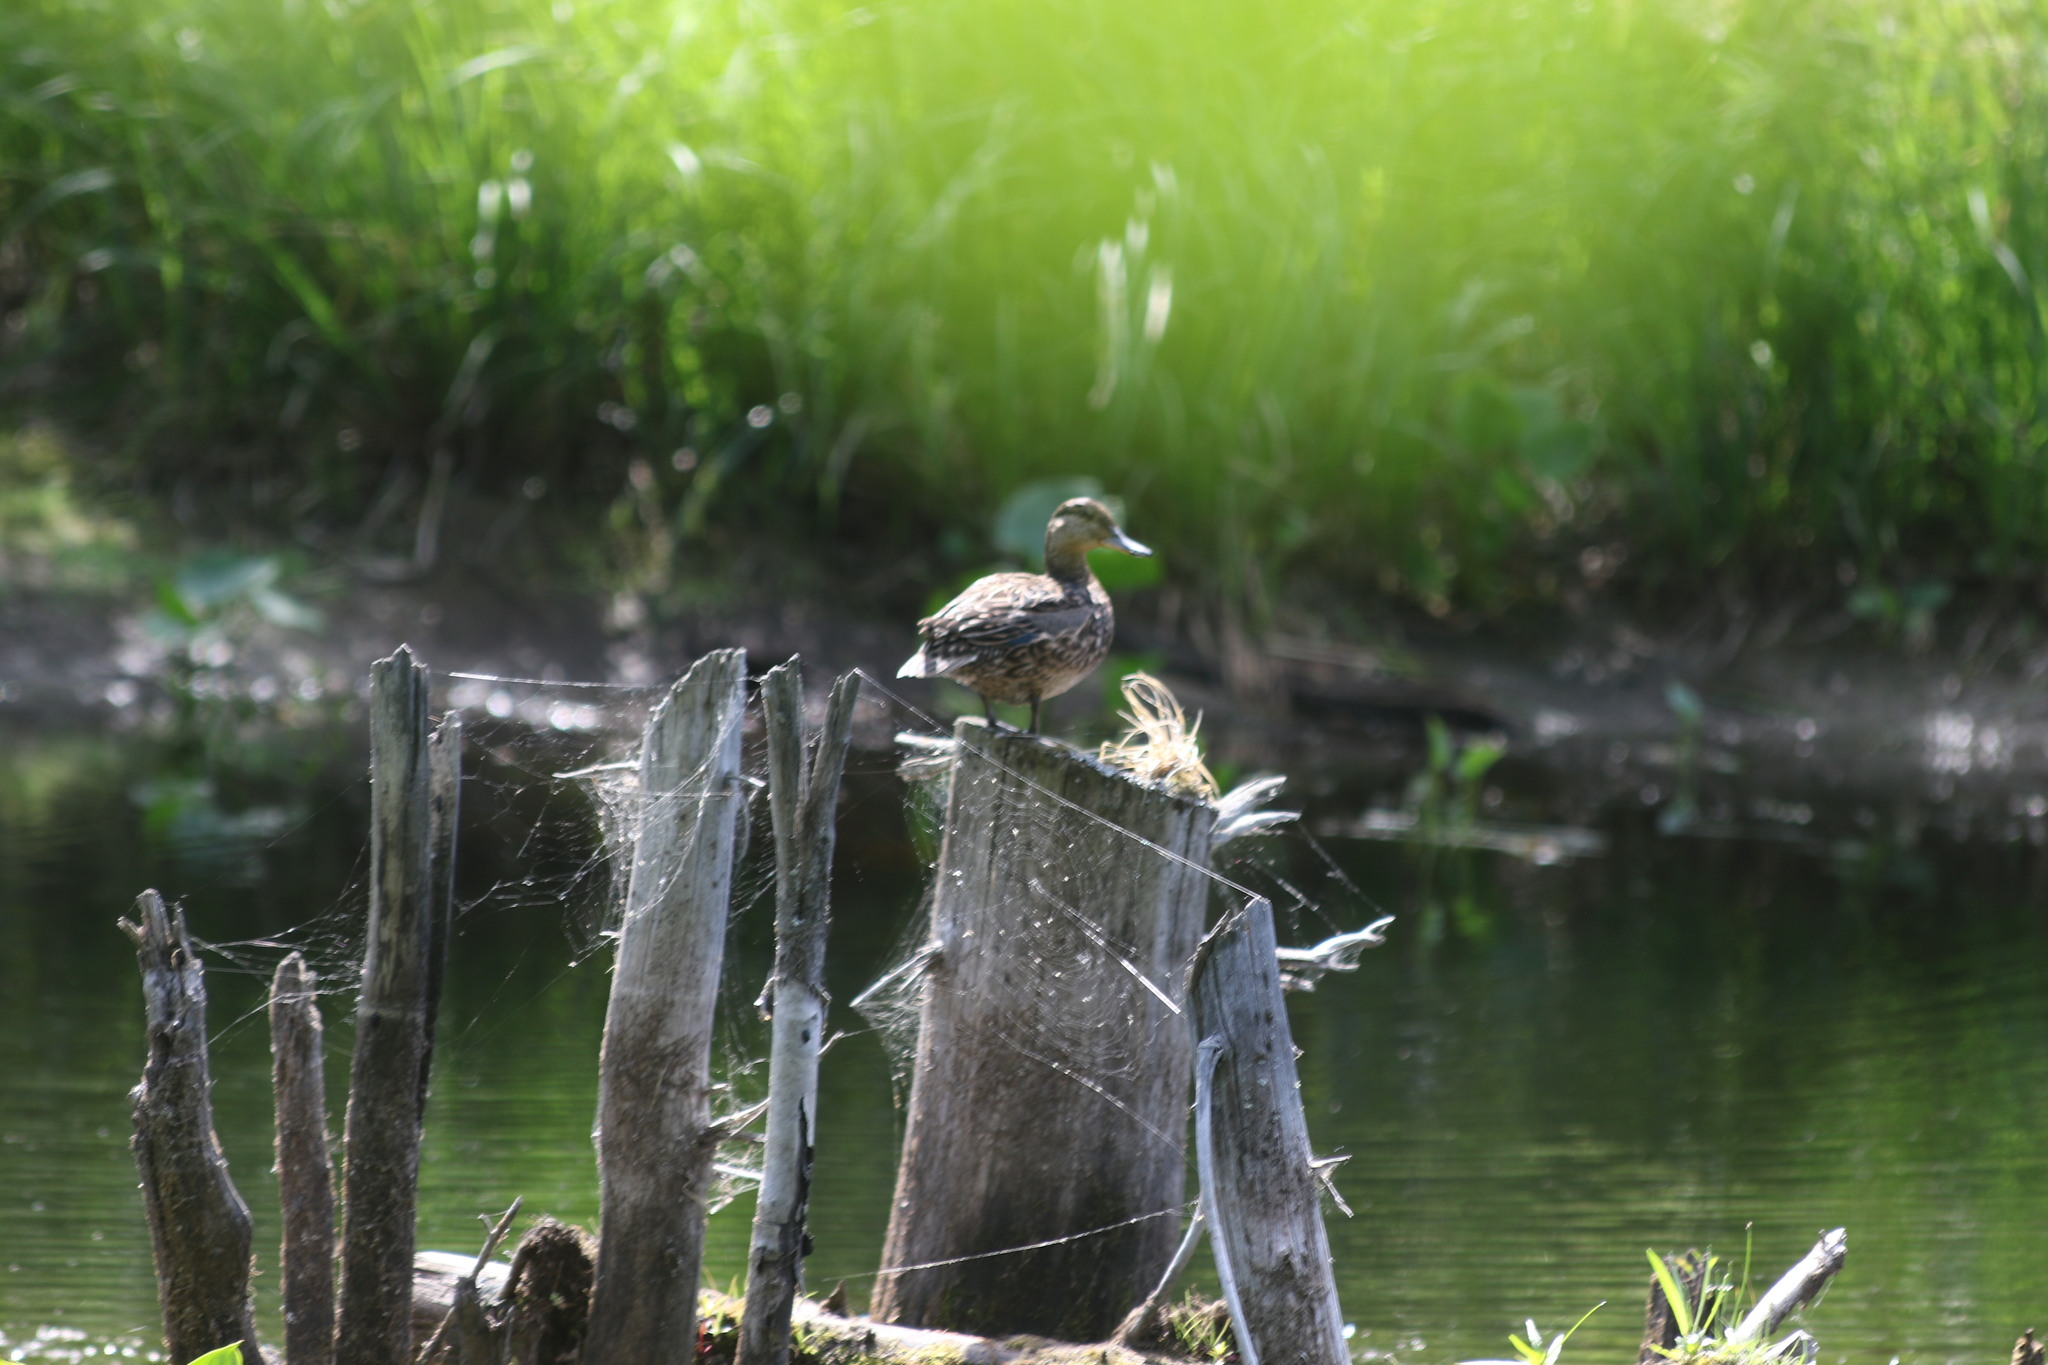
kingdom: Animalia
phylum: Chordata
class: Aves
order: Anseriformes
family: Anatidae
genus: Anas
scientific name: Anas platyrhynchos
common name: Mallard
